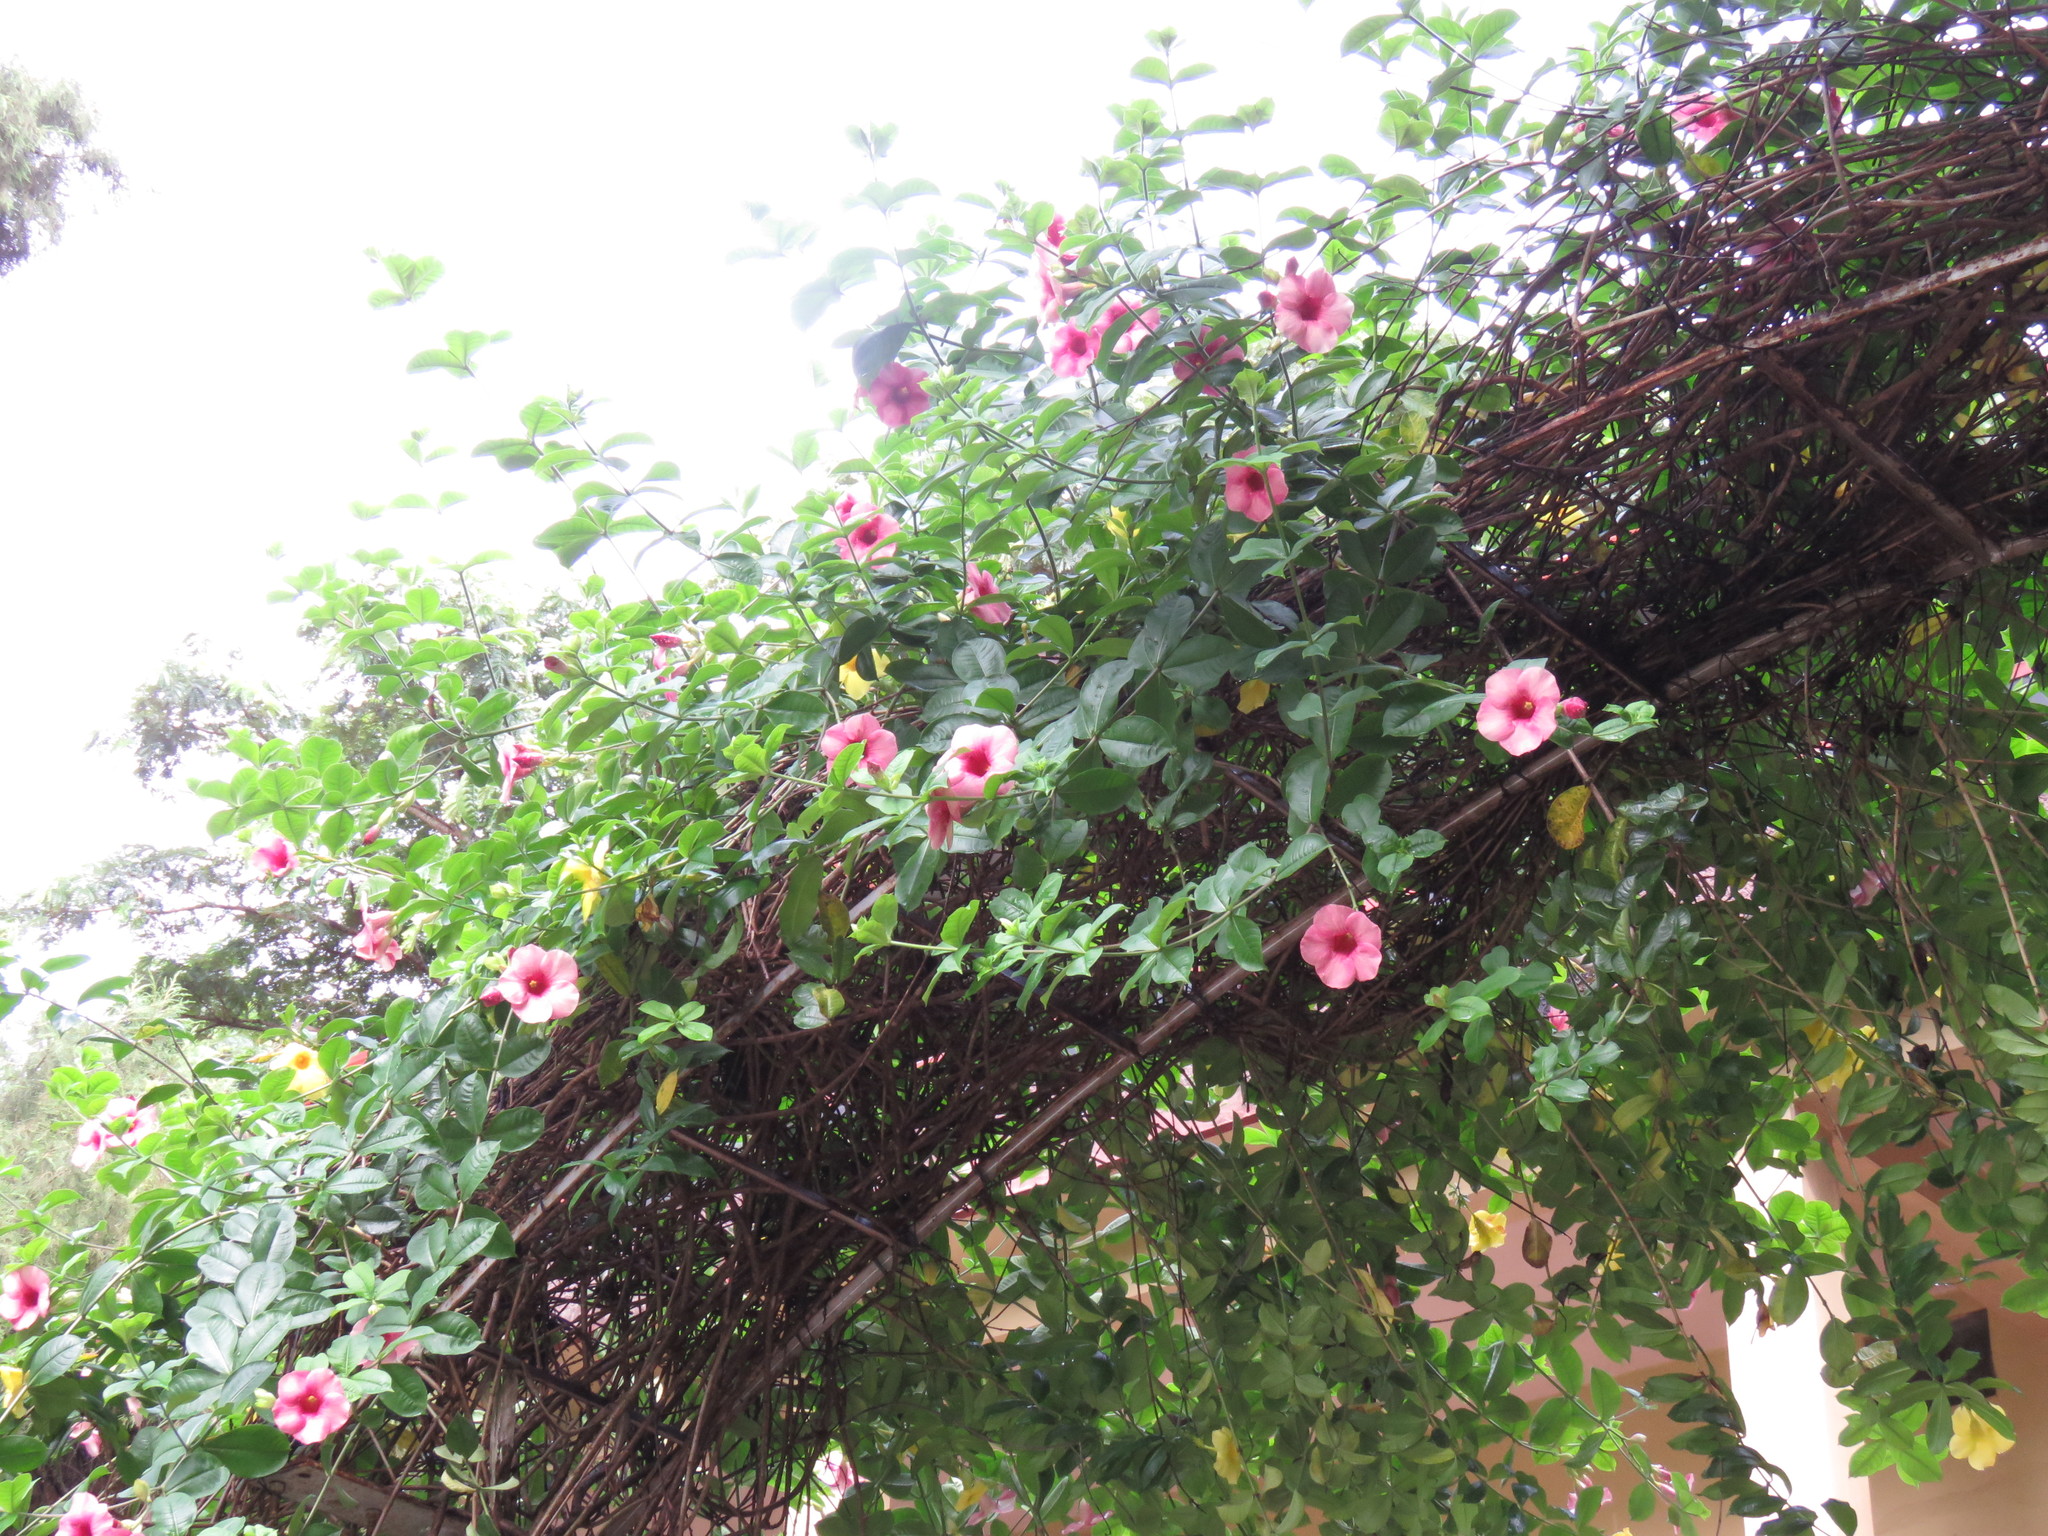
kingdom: Plantae
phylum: Tracheophyta
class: Magnoliopsida
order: Gentianales
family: Apocynaceae
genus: Allamanda
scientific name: Allamanda blanchetii
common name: Purple allamanda
